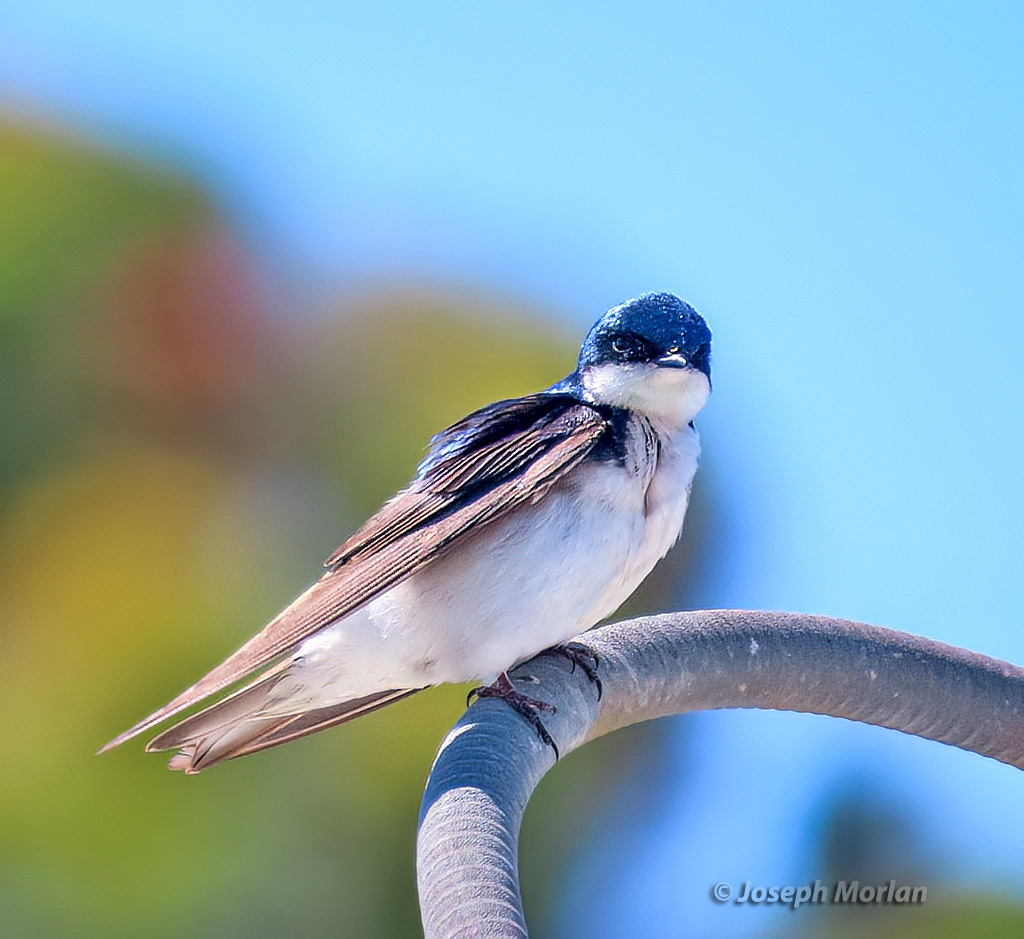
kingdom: Animalia
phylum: Chordata
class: Aves
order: Passeriformes
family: Hirundinidae
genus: Tachycineta
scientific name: Tachycineta bicolor
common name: Tree swallow
